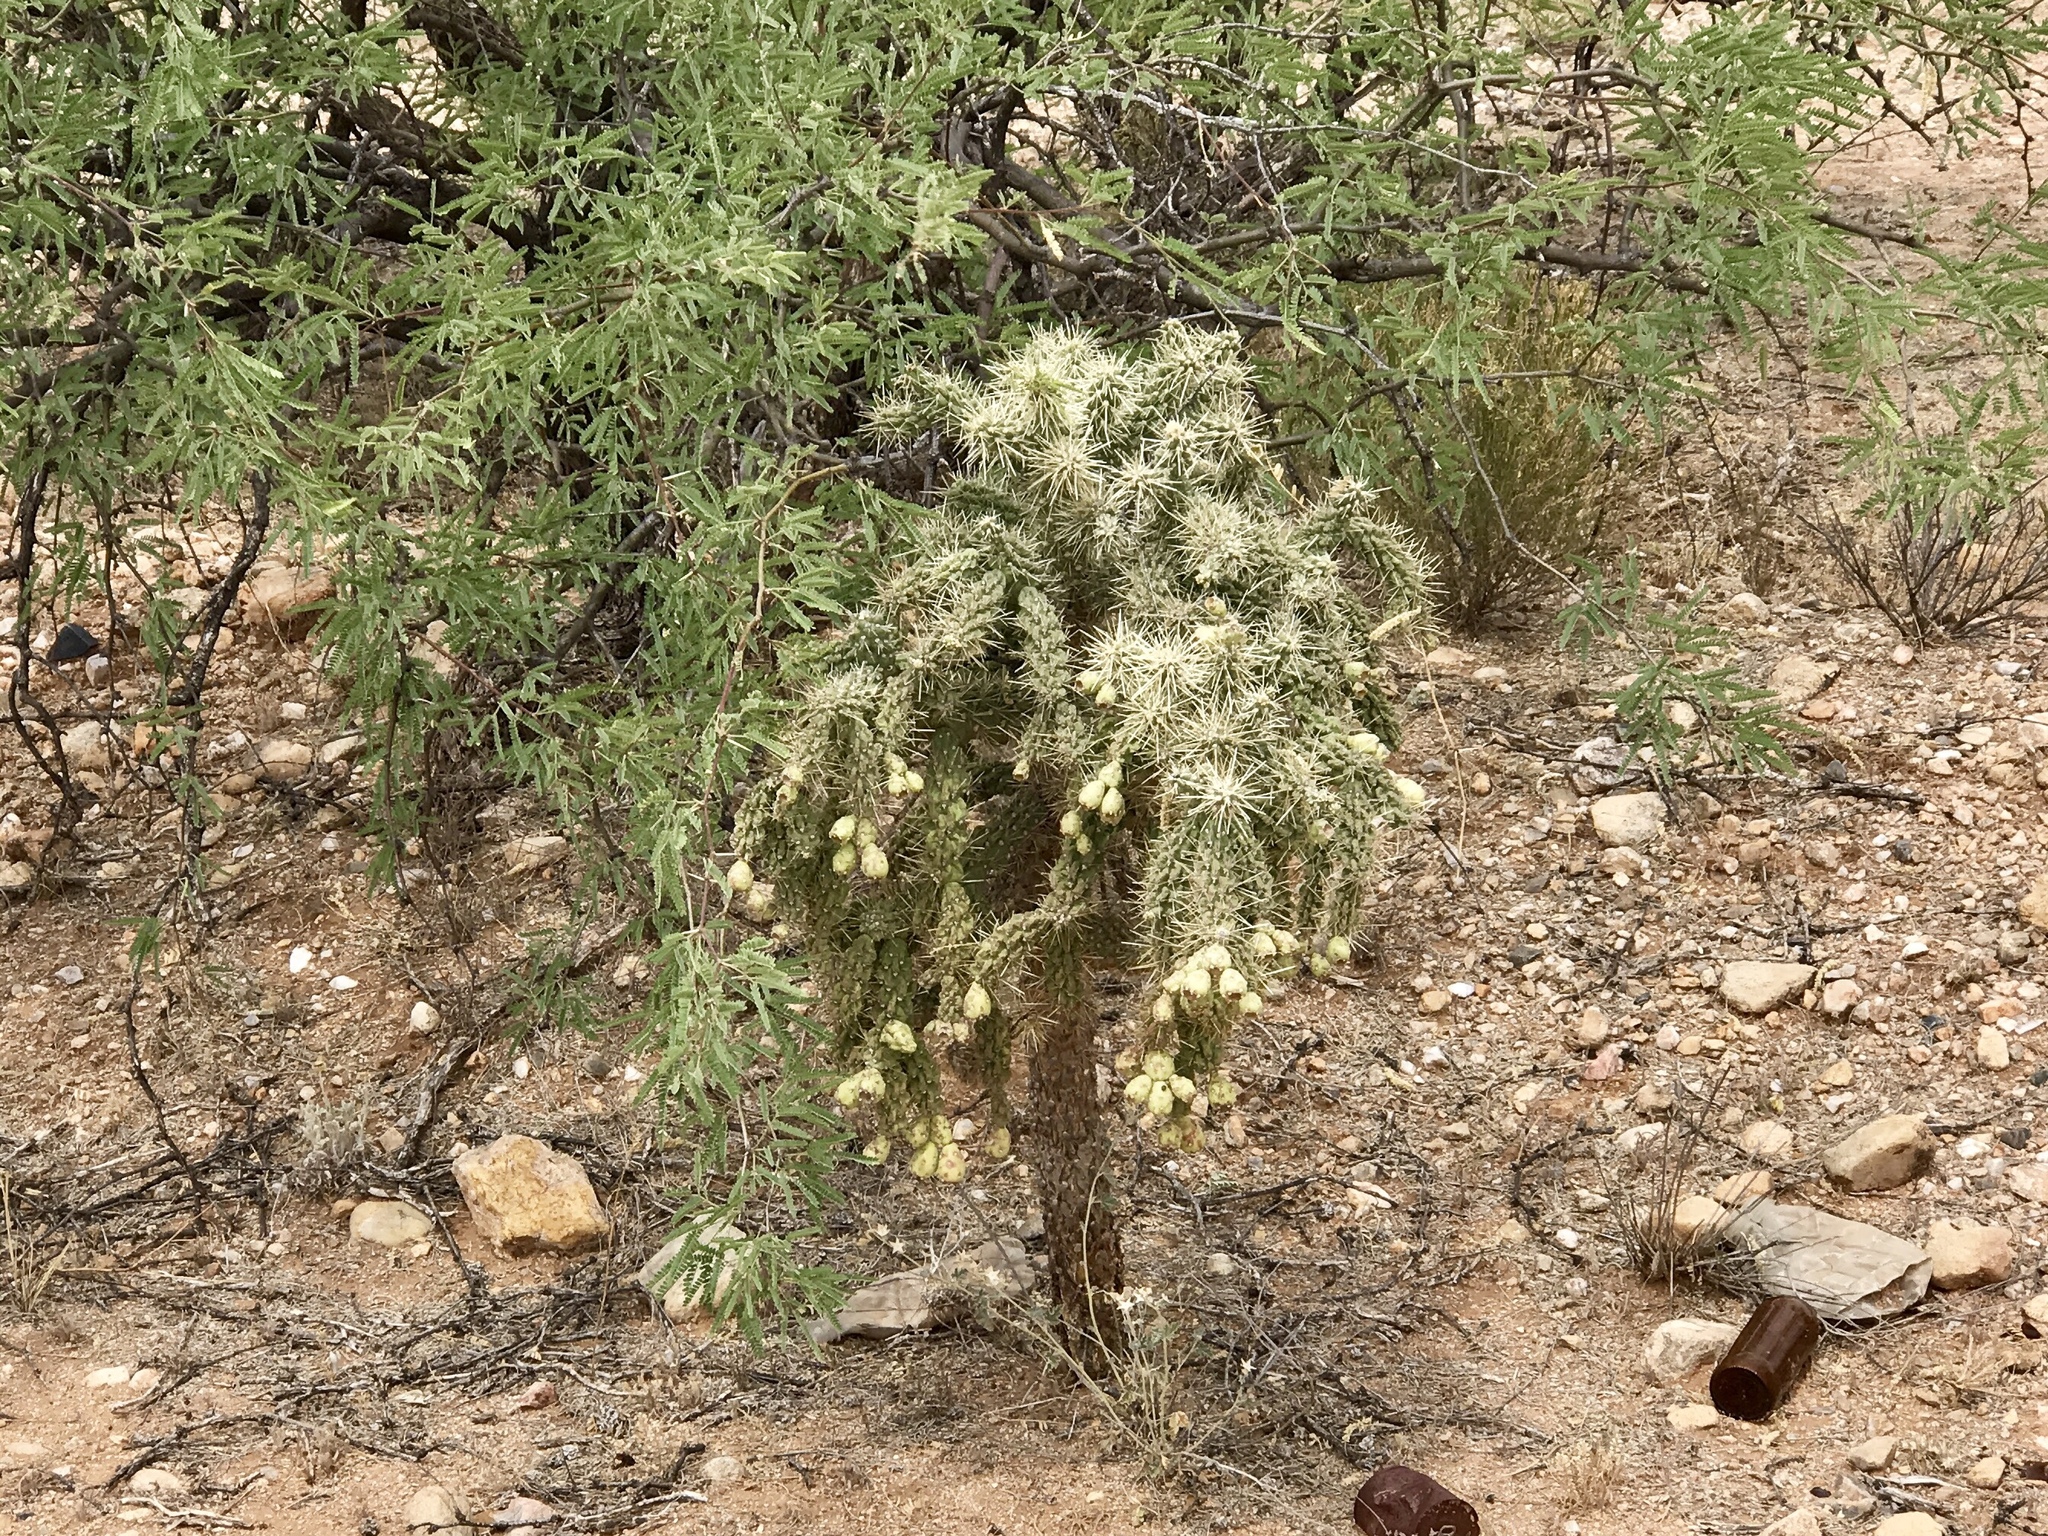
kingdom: Plantae
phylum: Tracheophyta
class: Magnoliopsida
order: Caryophyllales
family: Cactaceae
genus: Cylindropuntia
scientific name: Cylindropuntia fulgida
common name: Jumping cholla
